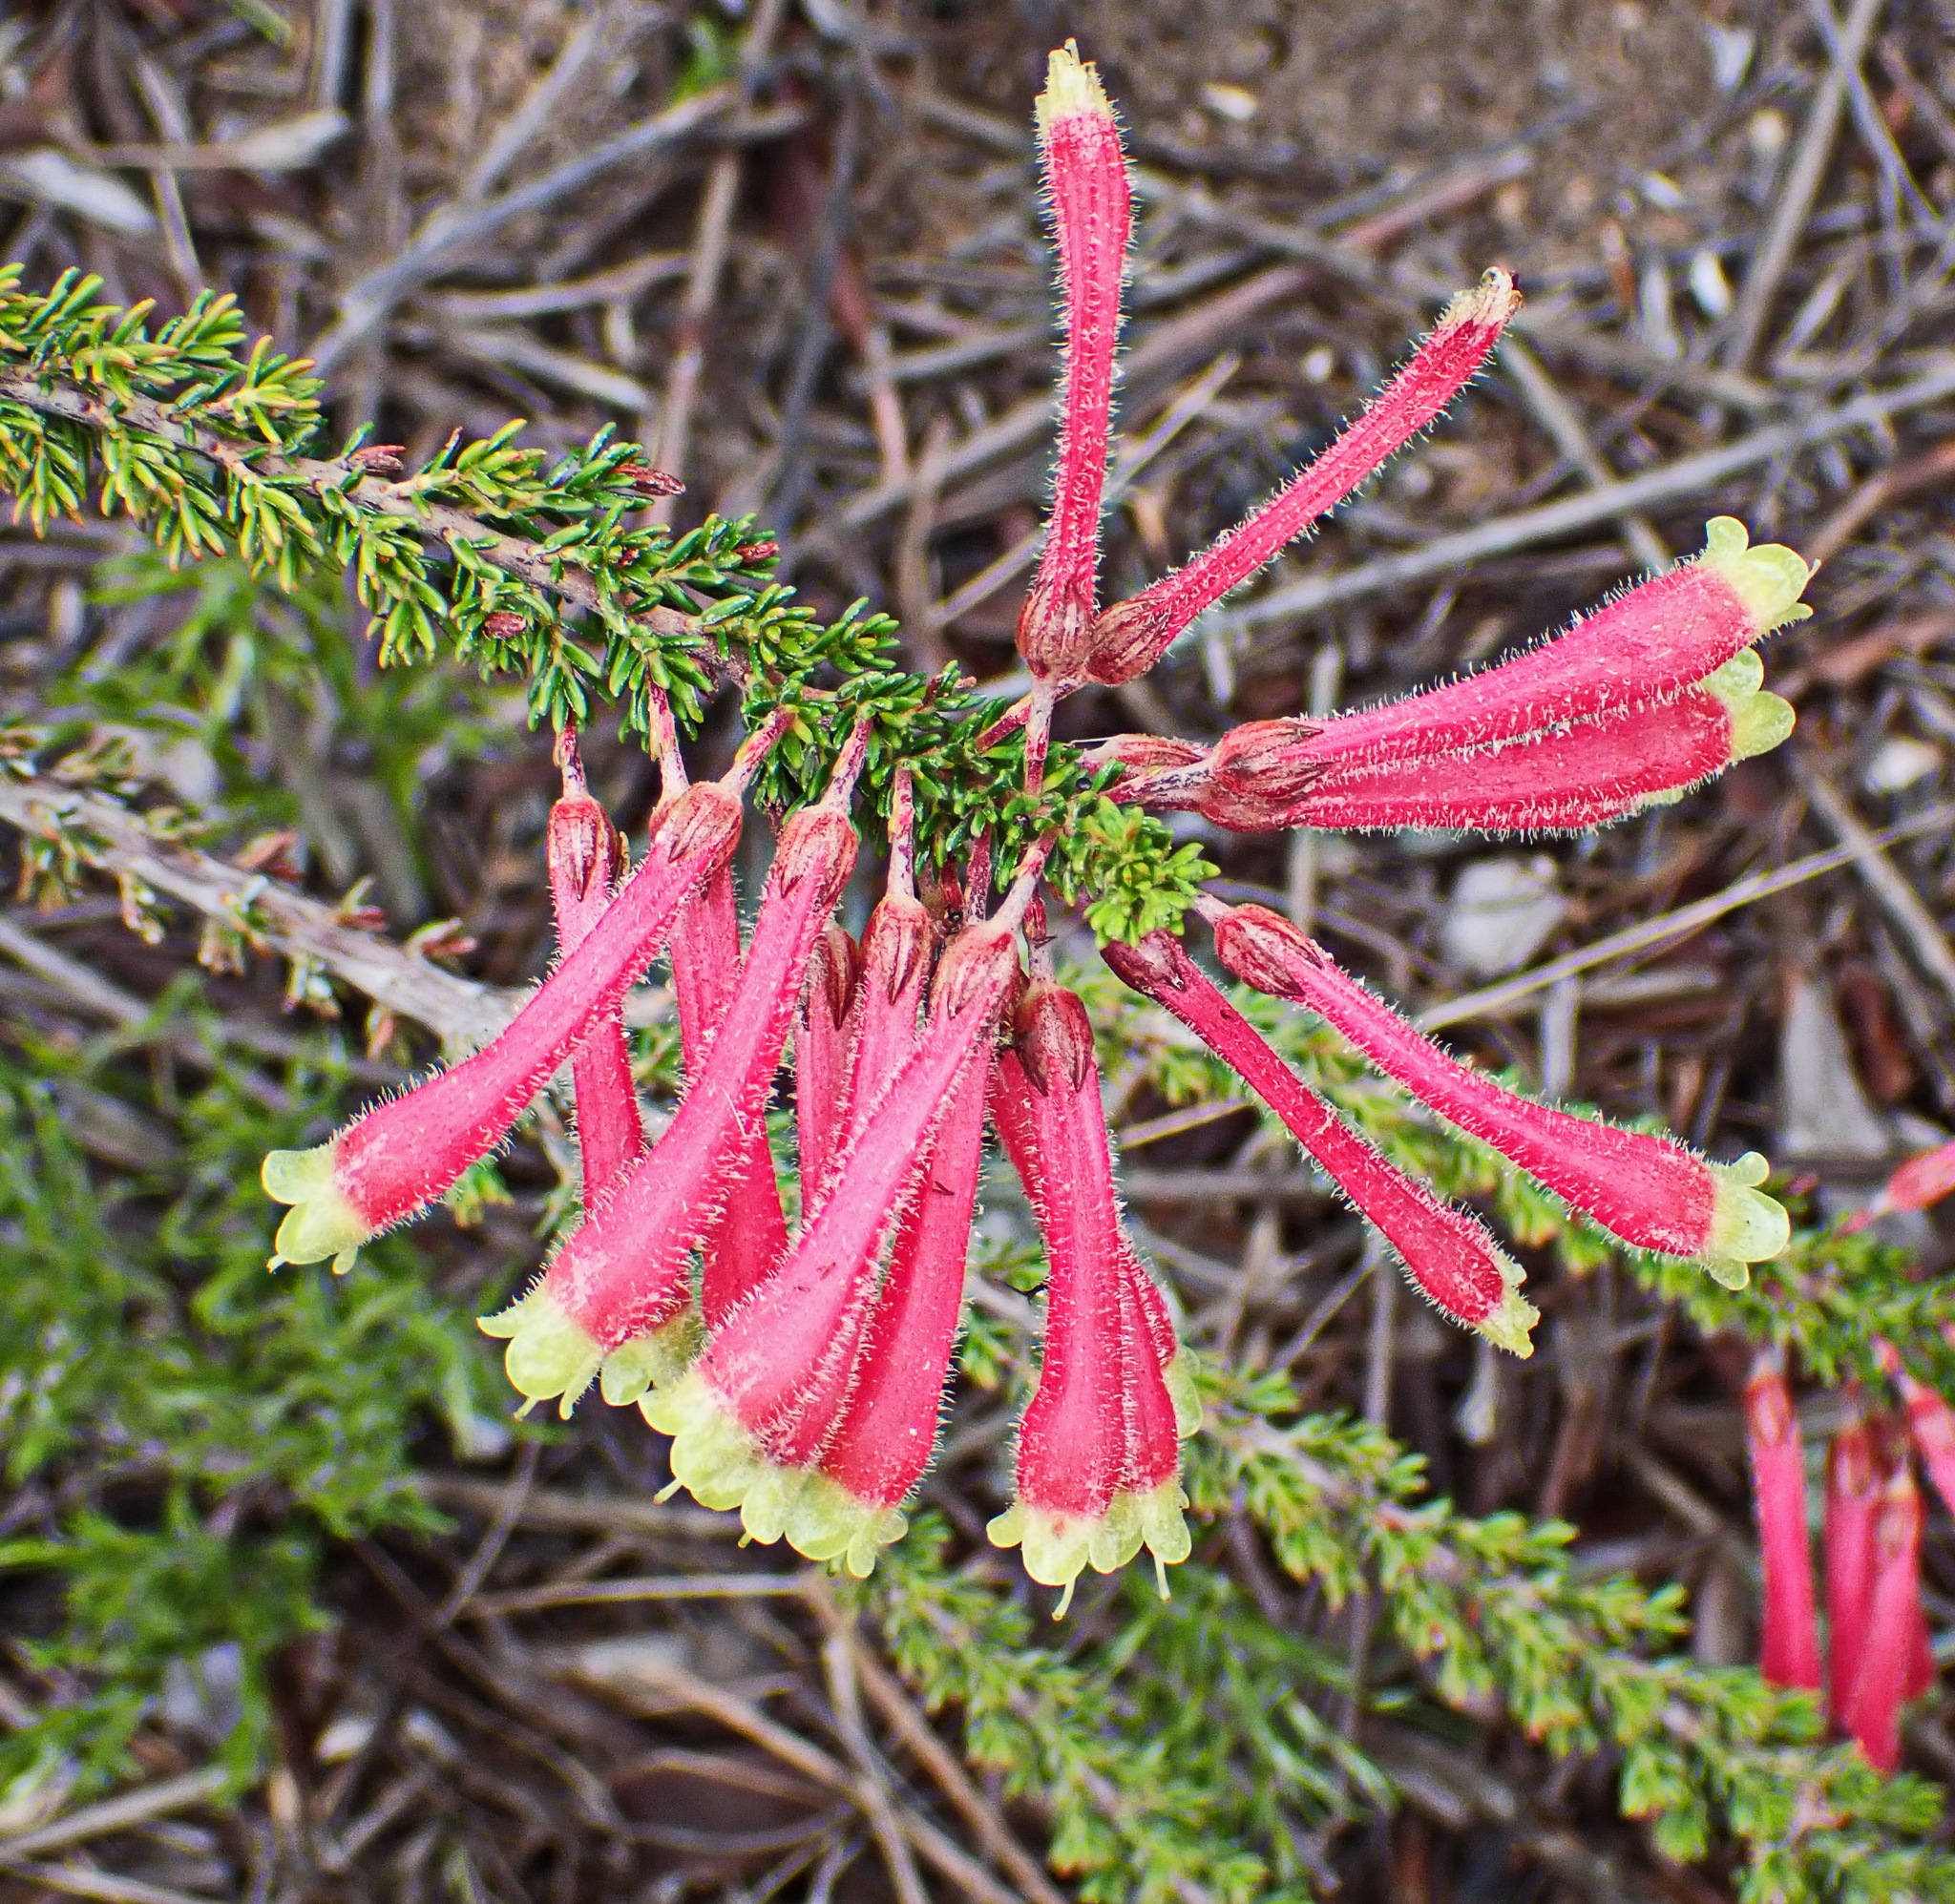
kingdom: Plantae
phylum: Tracheophyta
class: Magnoliopsida
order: Ericales
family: Ericaceae
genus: Erica
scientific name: Erica densifolia
